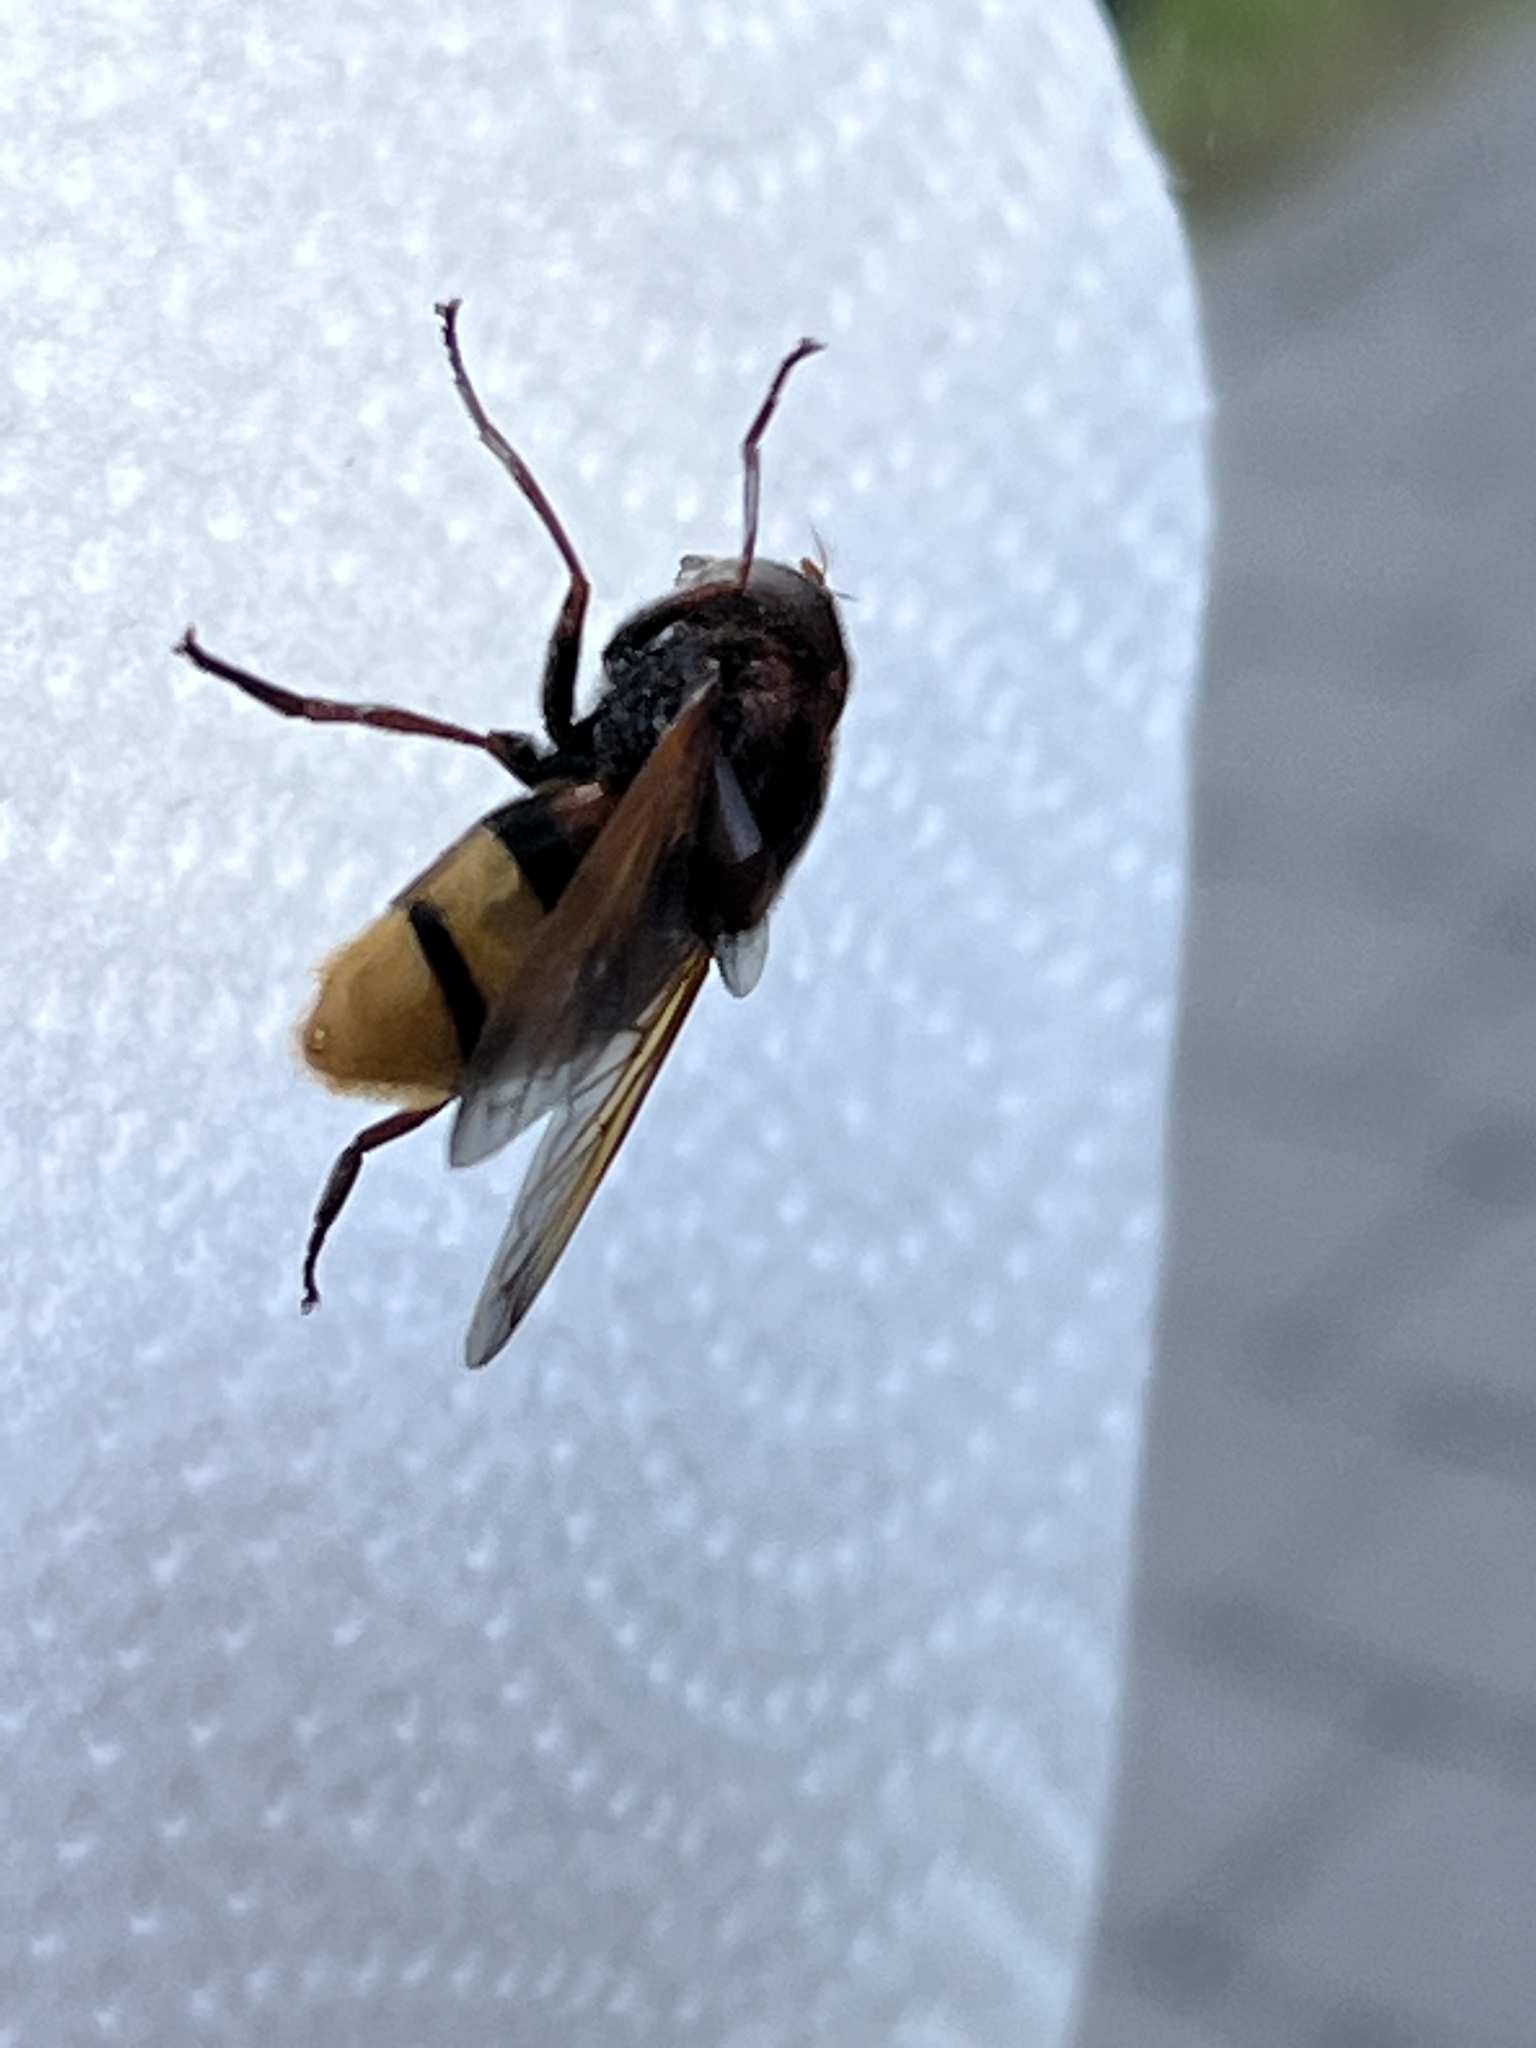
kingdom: Animalia
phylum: Arthropoda
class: Insecta
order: Diptera
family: Syrphidae
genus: Volucella
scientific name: Volucella zonaria
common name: Hornet hoverfly
